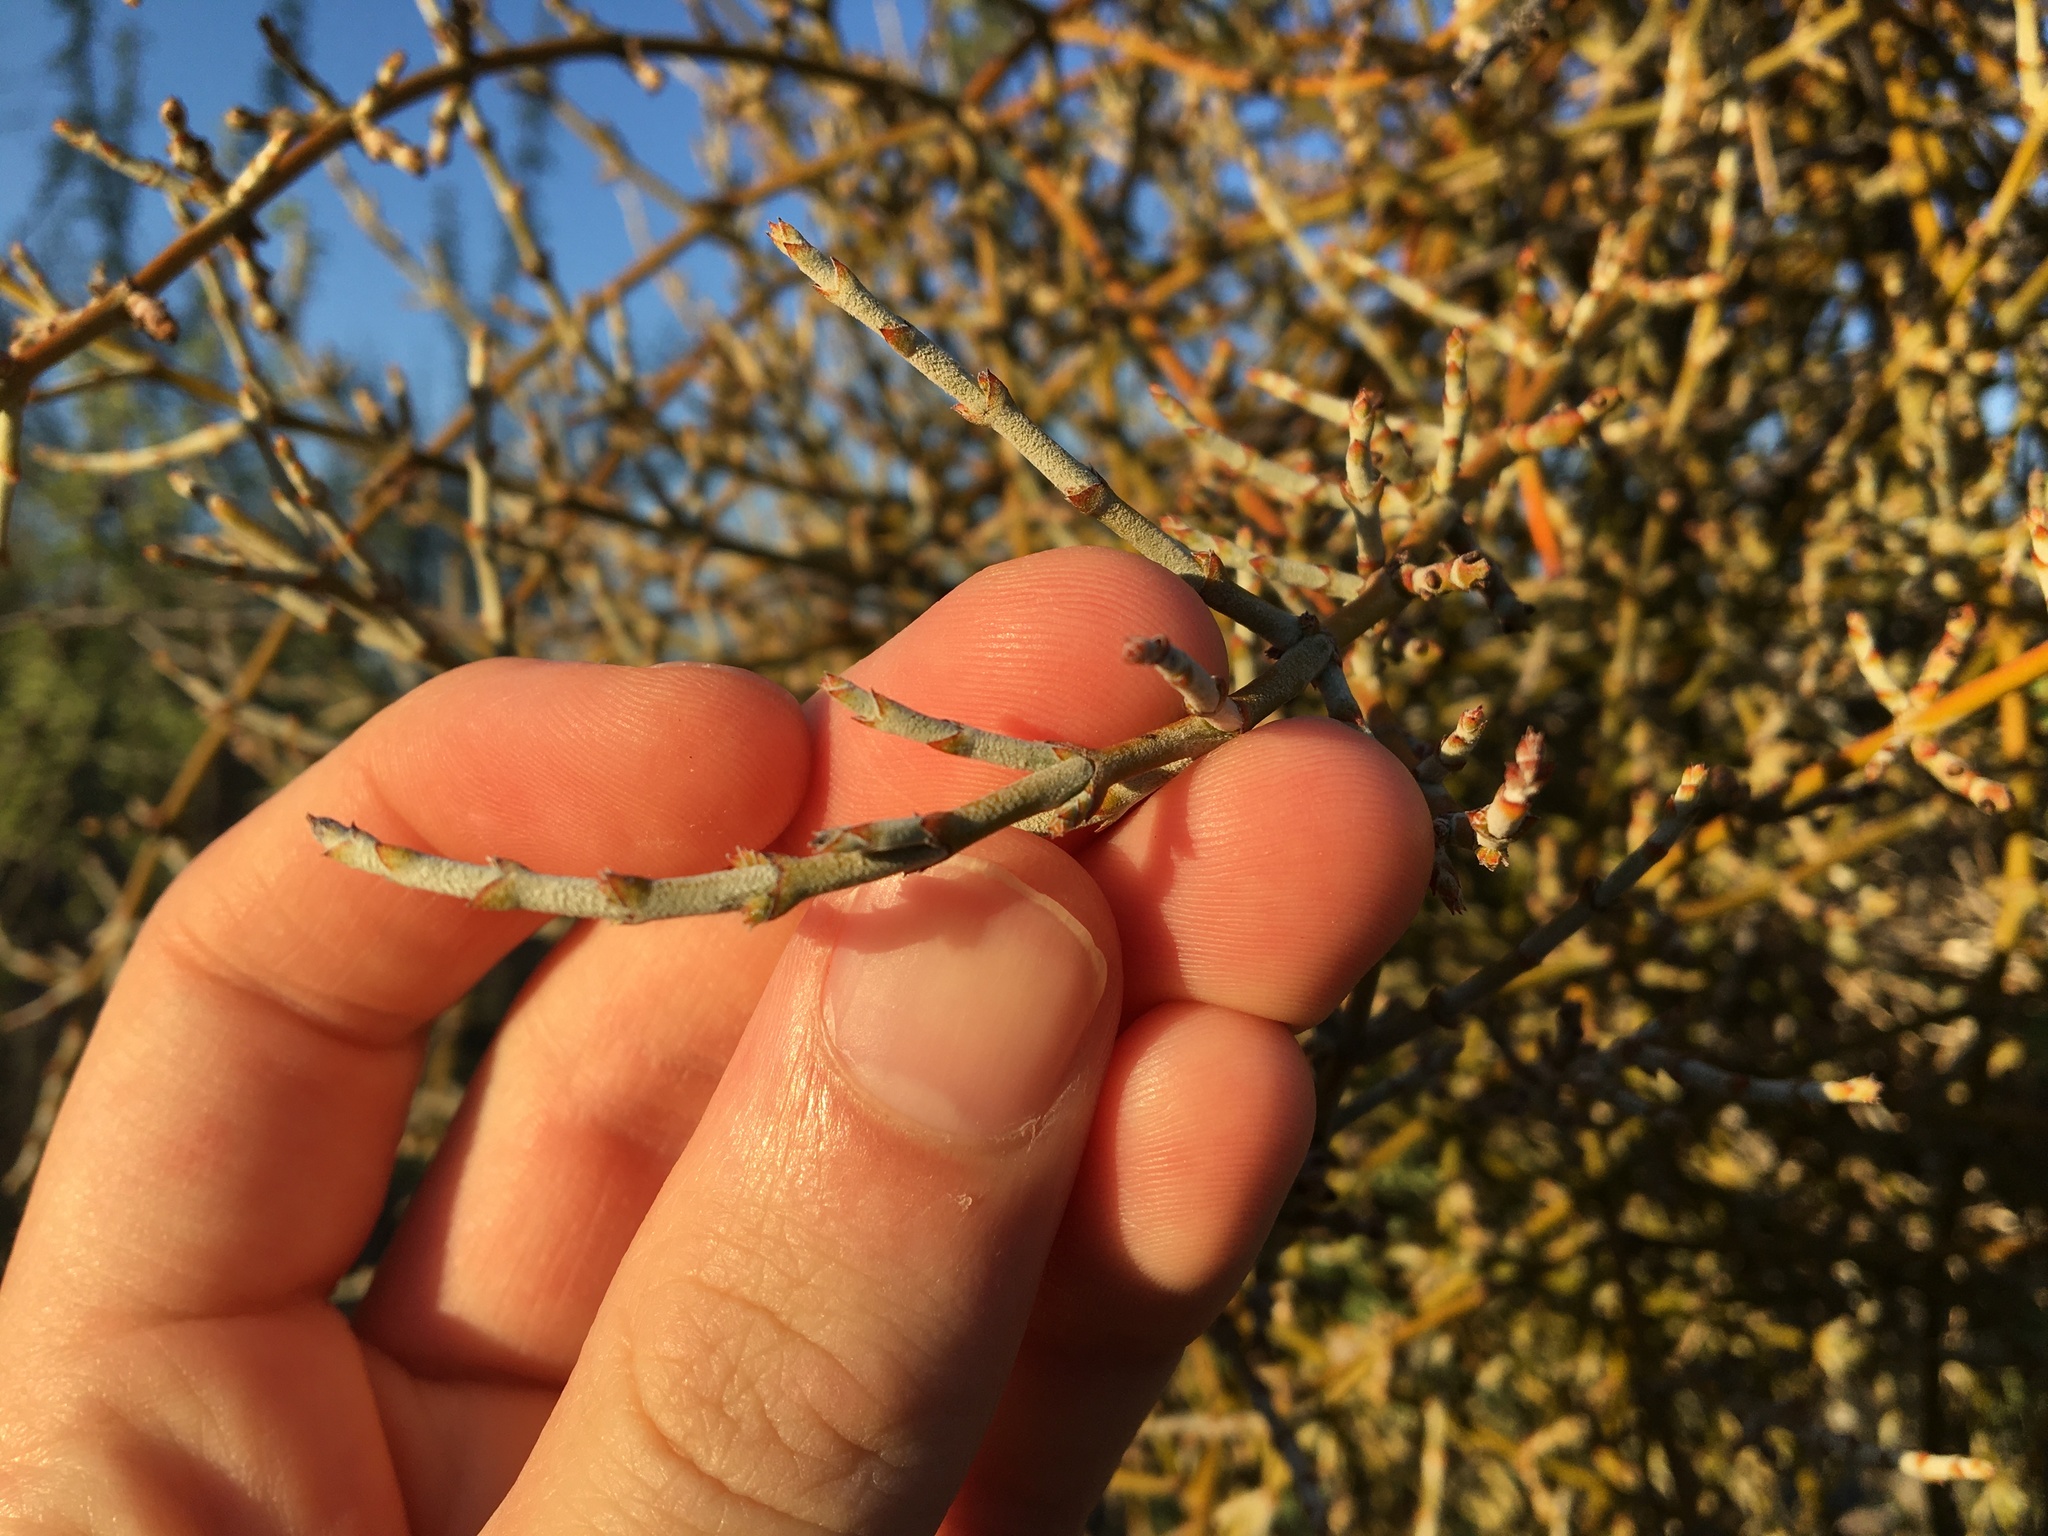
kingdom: Plantae
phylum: Tracheophyta
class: Magnoliopsida
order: Santalales
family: Viscaceae
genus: Phoradendron
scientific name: Phoradendron californicum
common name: Acacia mistletoe
